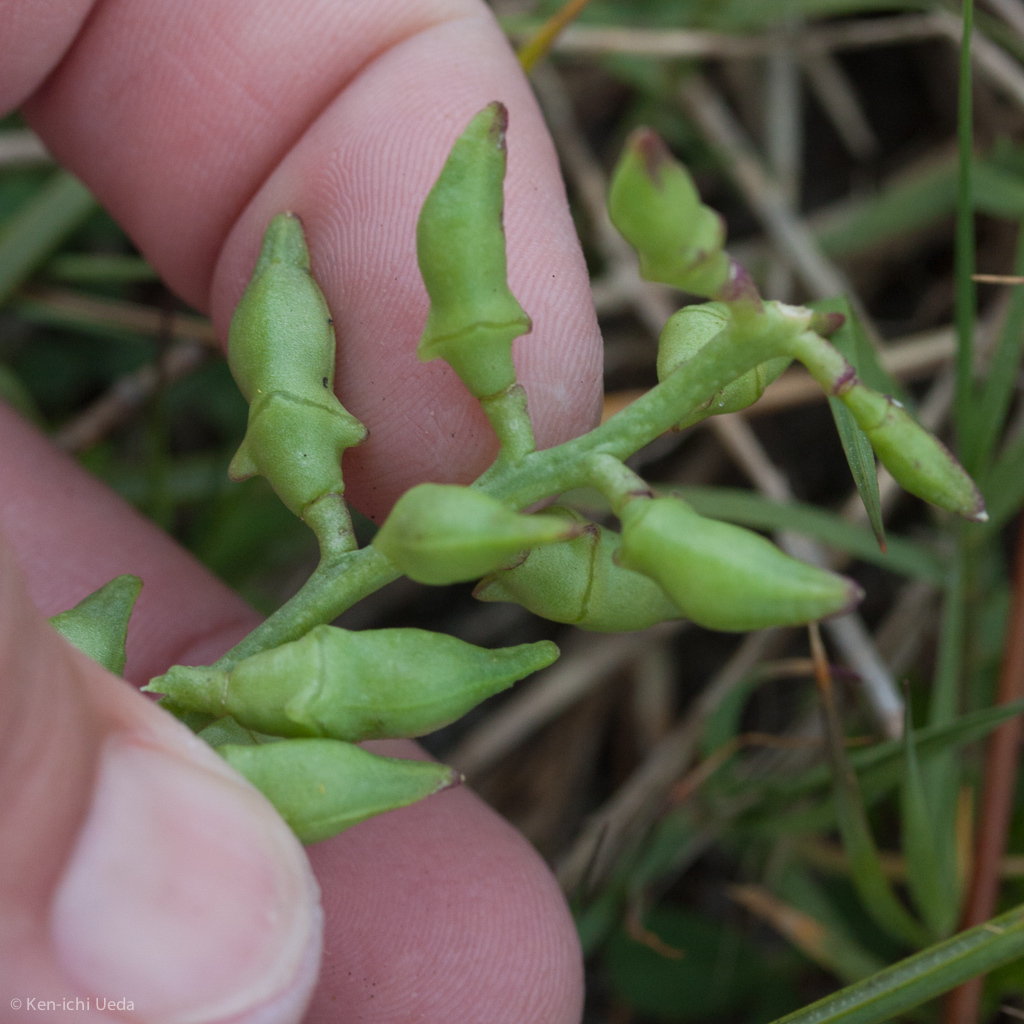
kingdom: Plantae
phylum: Tracheophyta
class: Magnoliopsida
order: Brassicales
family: Brassicaceae
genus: Cakile
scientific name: Cakile maritima
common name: Sea rocket
